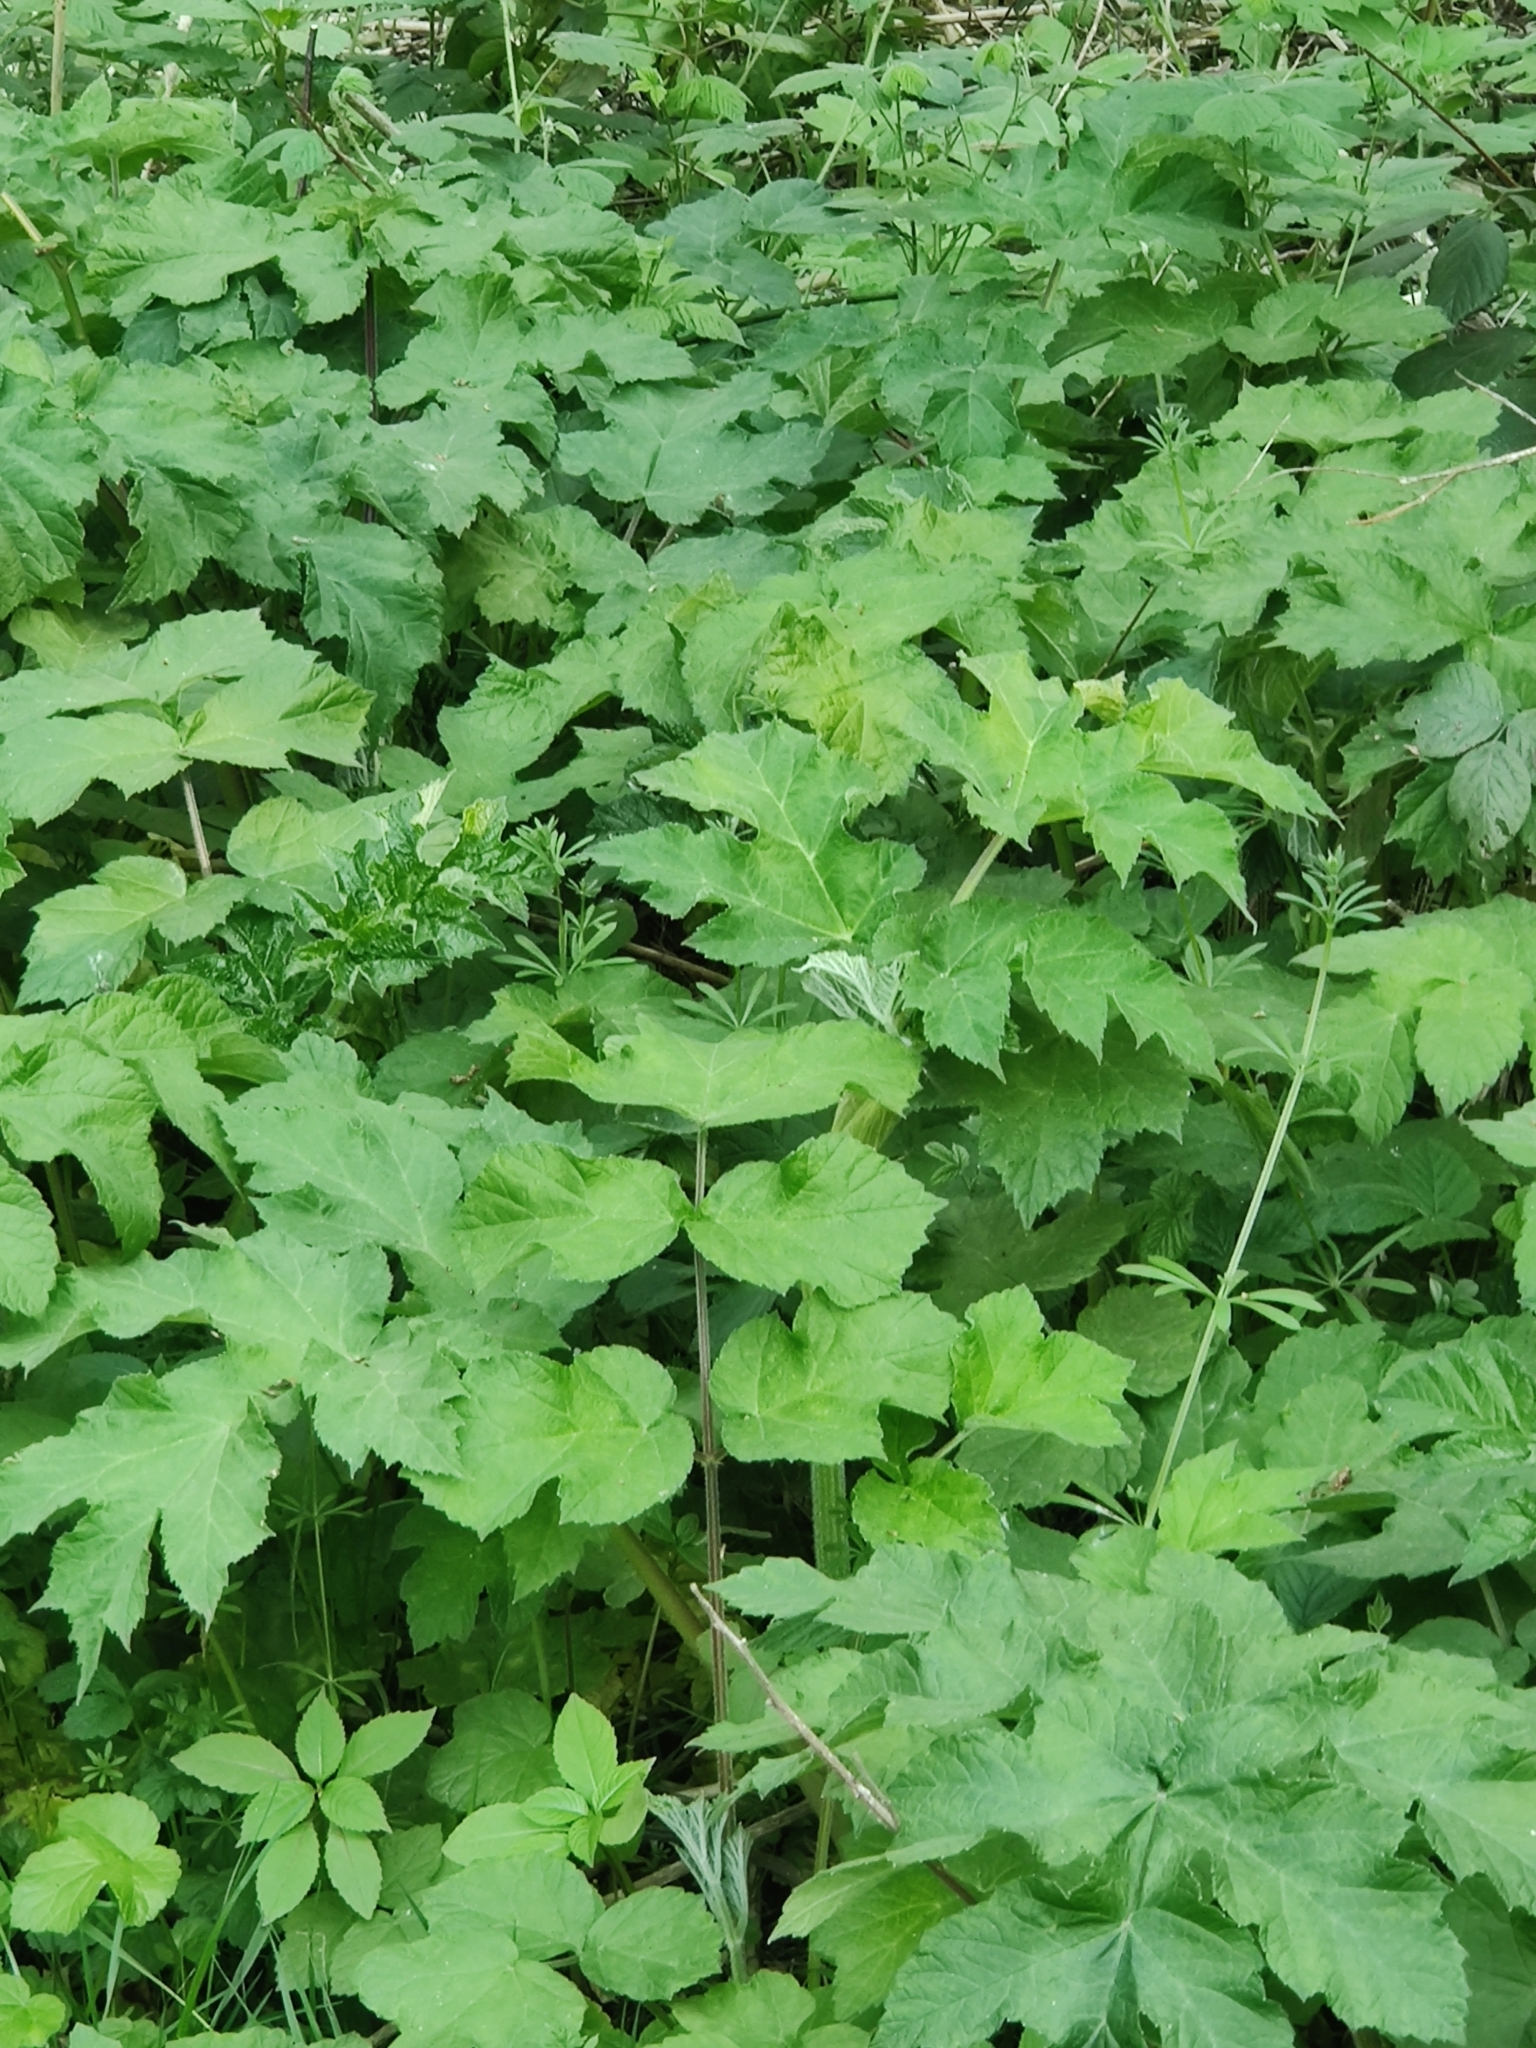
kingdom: Plantae
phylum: Tracheophyta
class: Magnoliopsida
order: Apiales
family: Apiaceae
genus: Heracleum
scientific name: Heracleum sphondylium
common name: Hogweed
